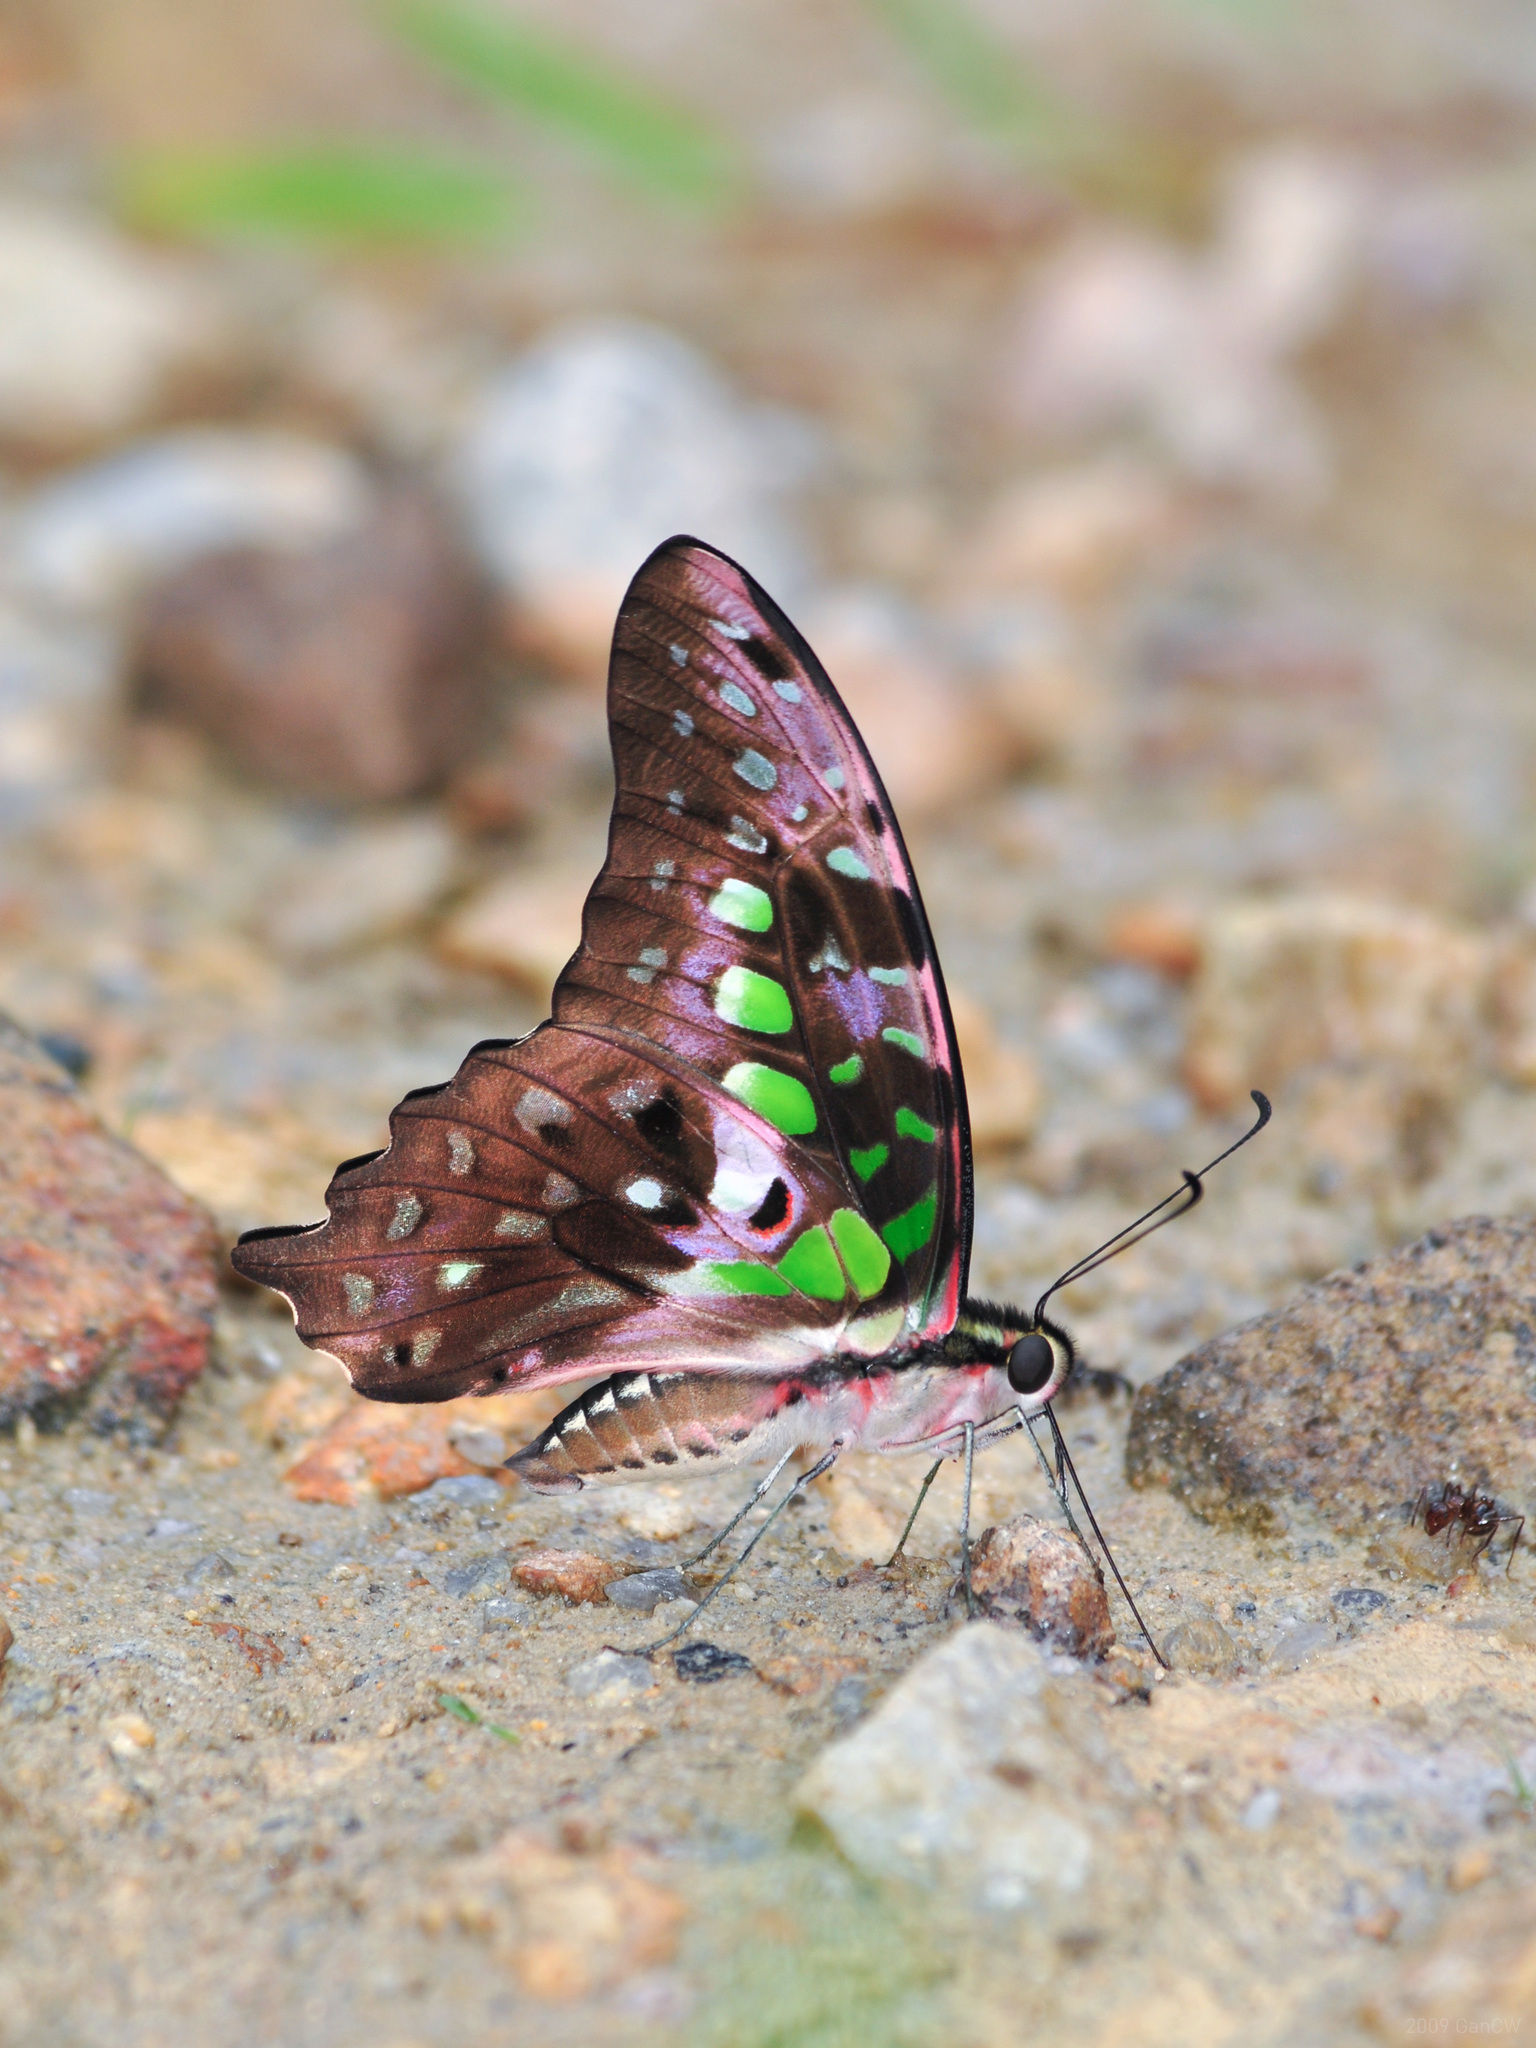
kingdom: Animalia
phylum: Arthropoda
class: Insecta
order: Lepidoptera
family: Papilionidae
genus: Graphium
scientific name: Graphium agamemnon
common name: Tailed jay
